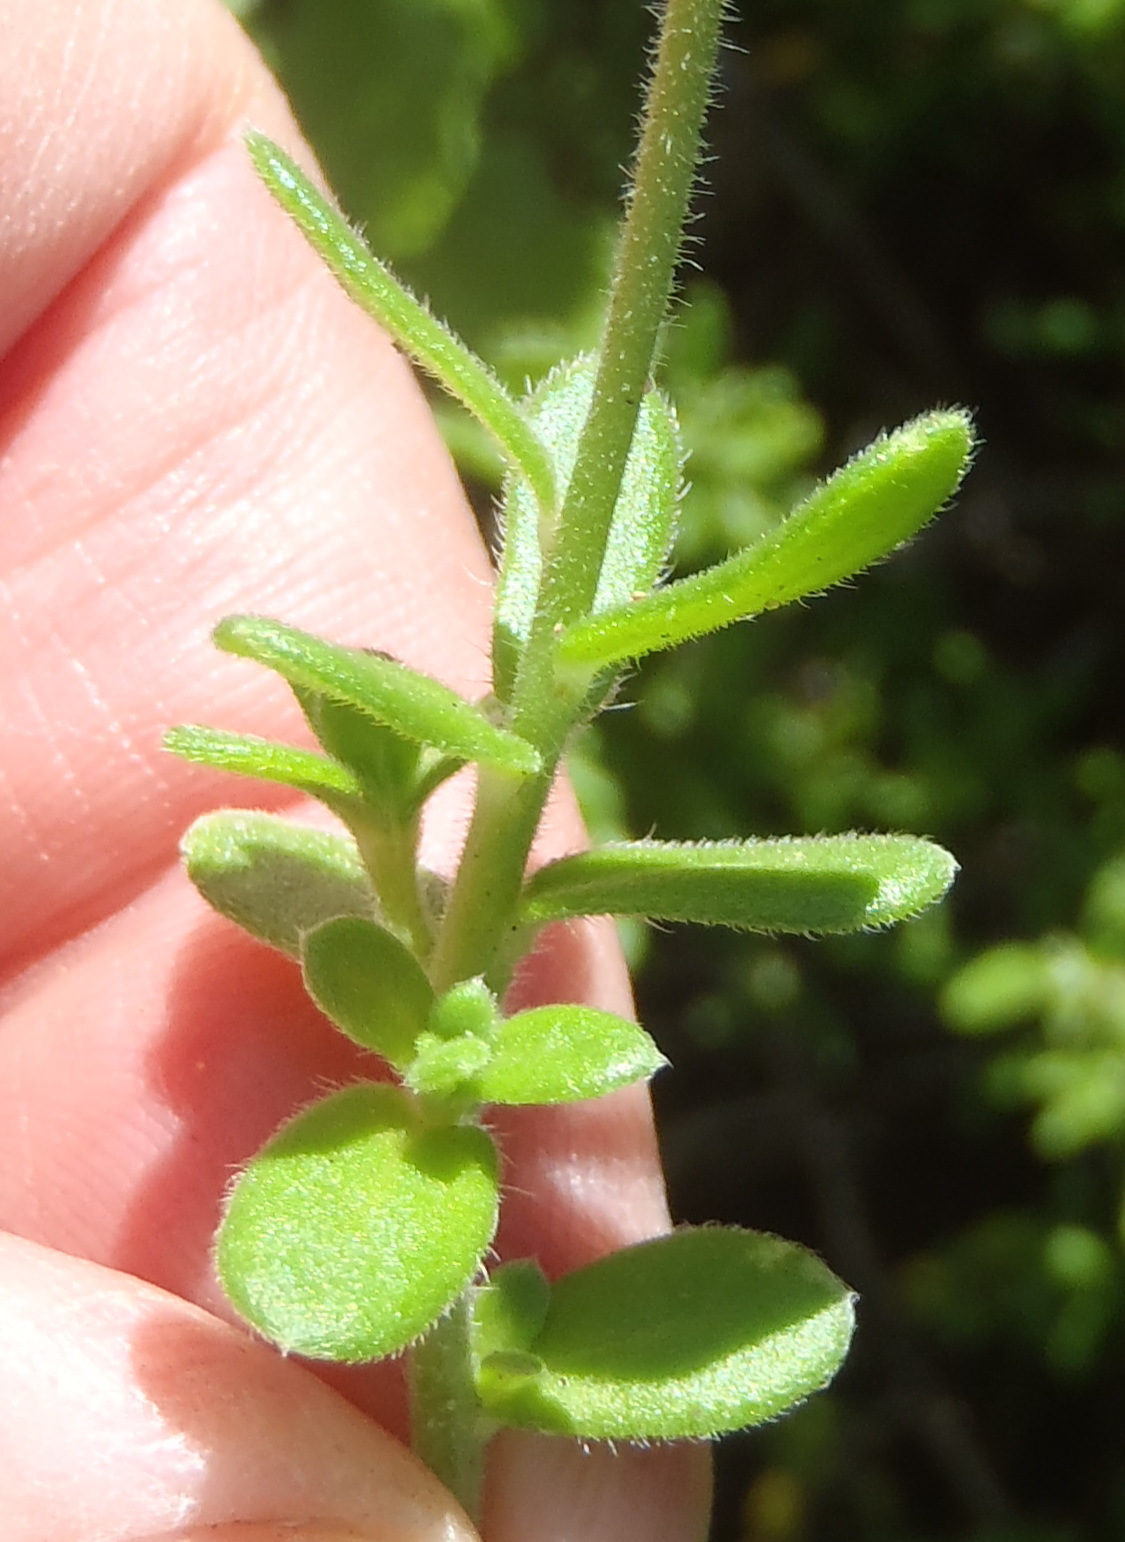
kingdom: Plantae
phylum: Tracheophyta
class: Magnoliopsida
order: Asterales
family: Asteraceae
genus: Felicia
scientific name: Felicia amoena
